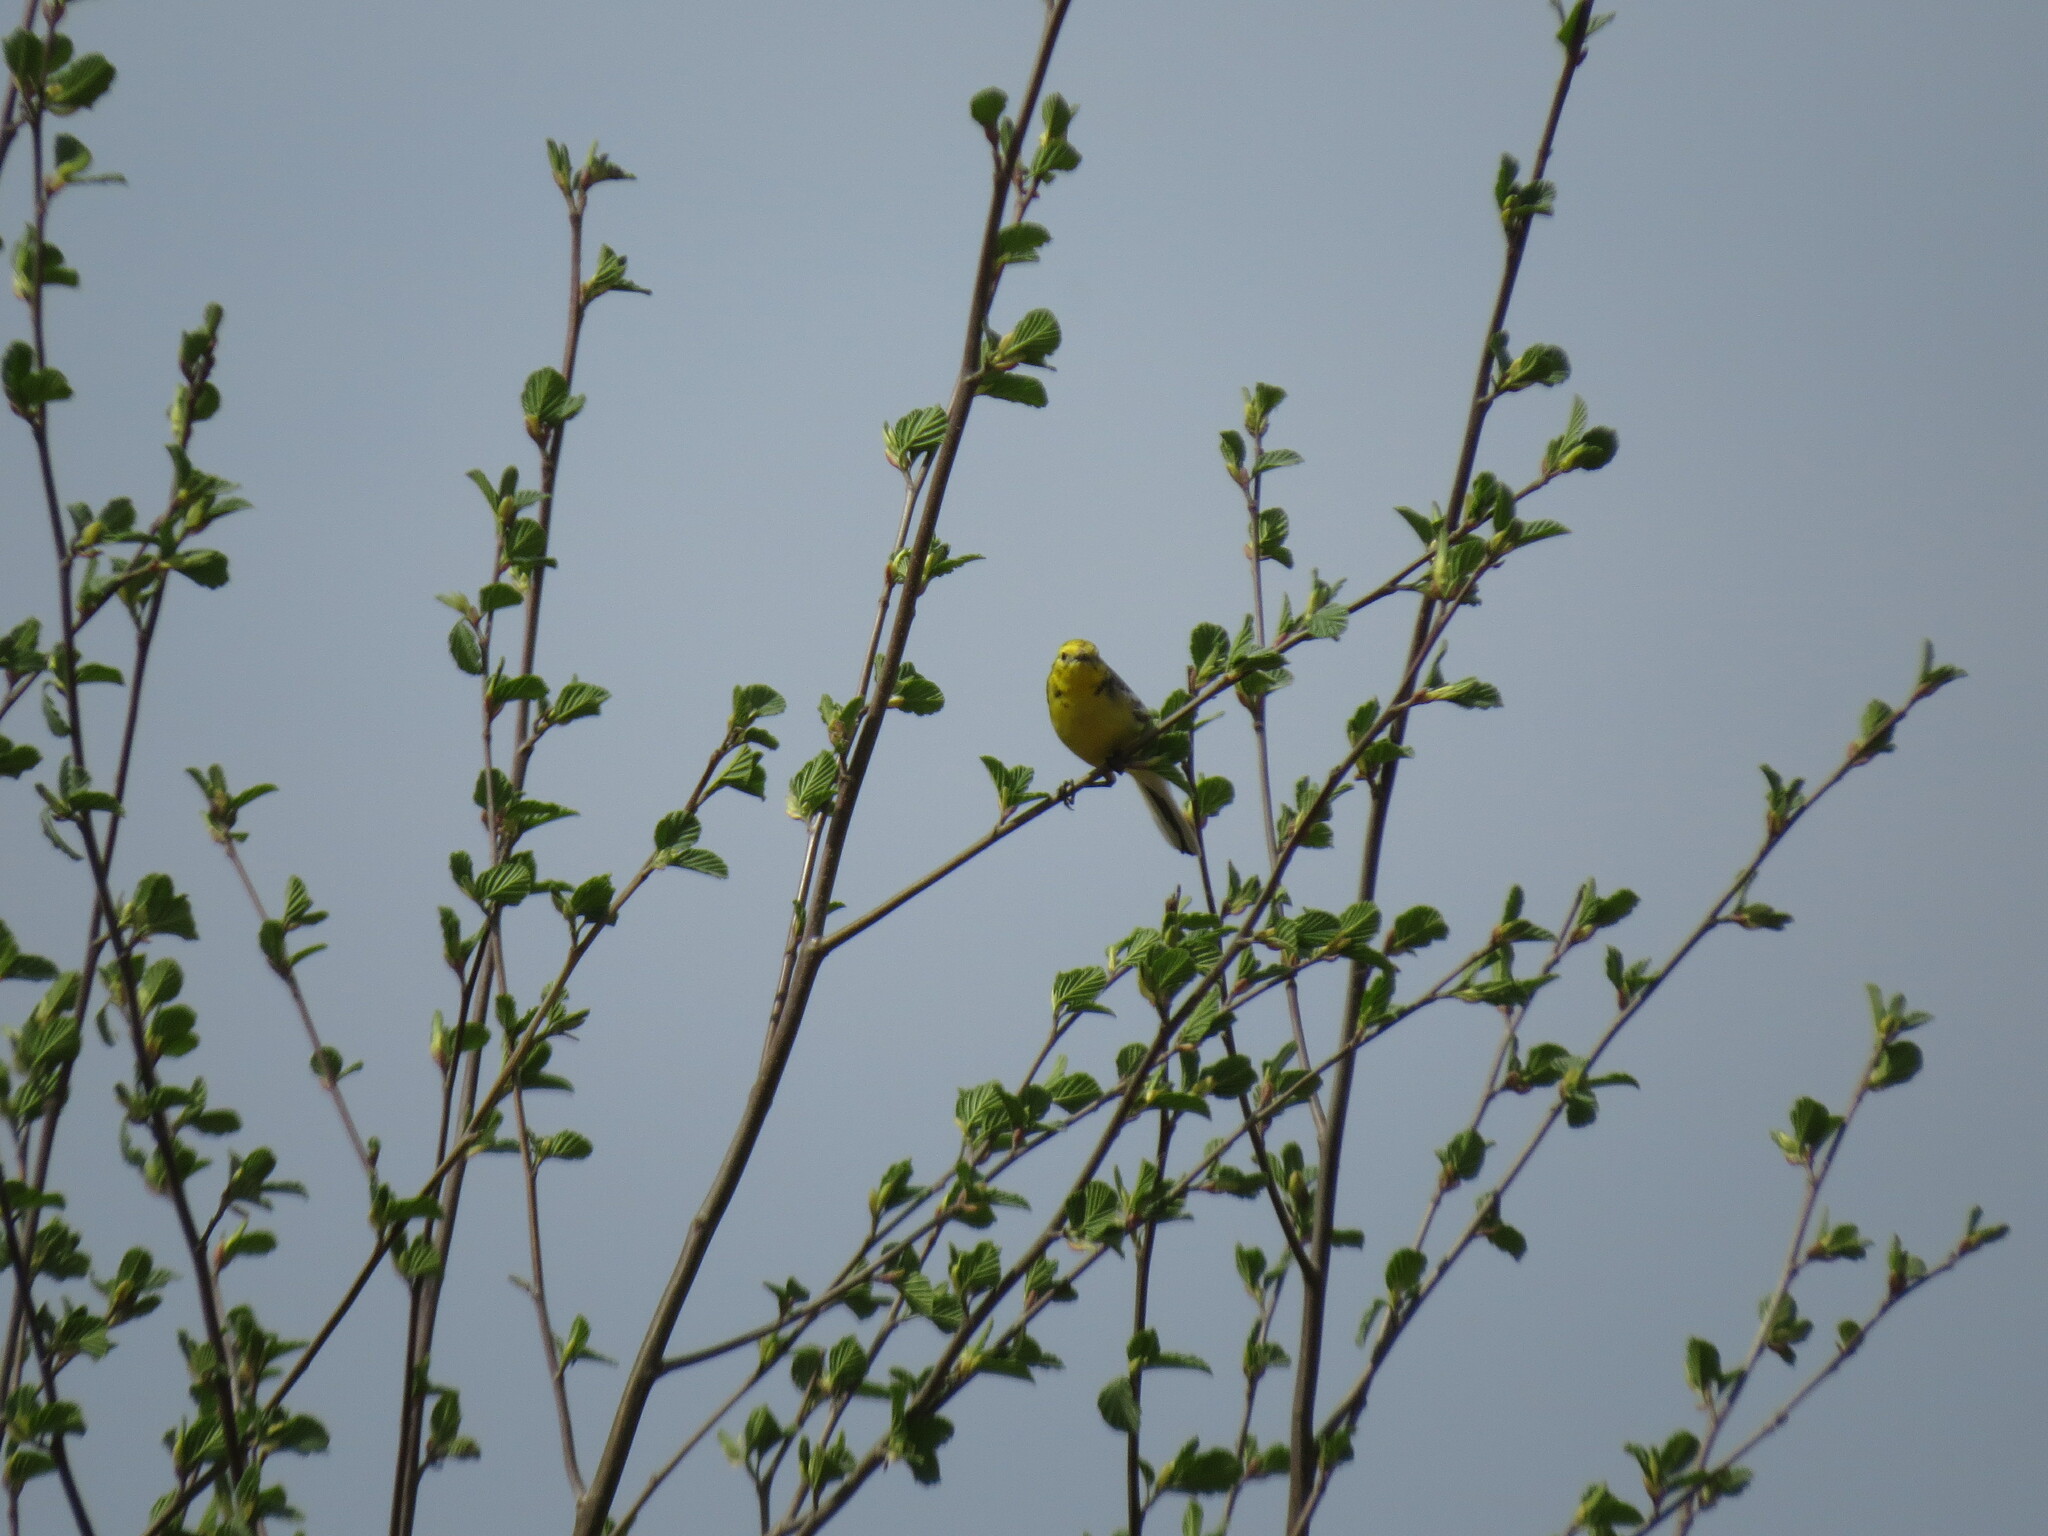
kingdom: Animalia
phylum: Chordata
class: Aves
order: Passeriformes
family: Motacillidae
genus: Motacilla
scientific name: Motacilla citreola
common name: Citrine wagtail
